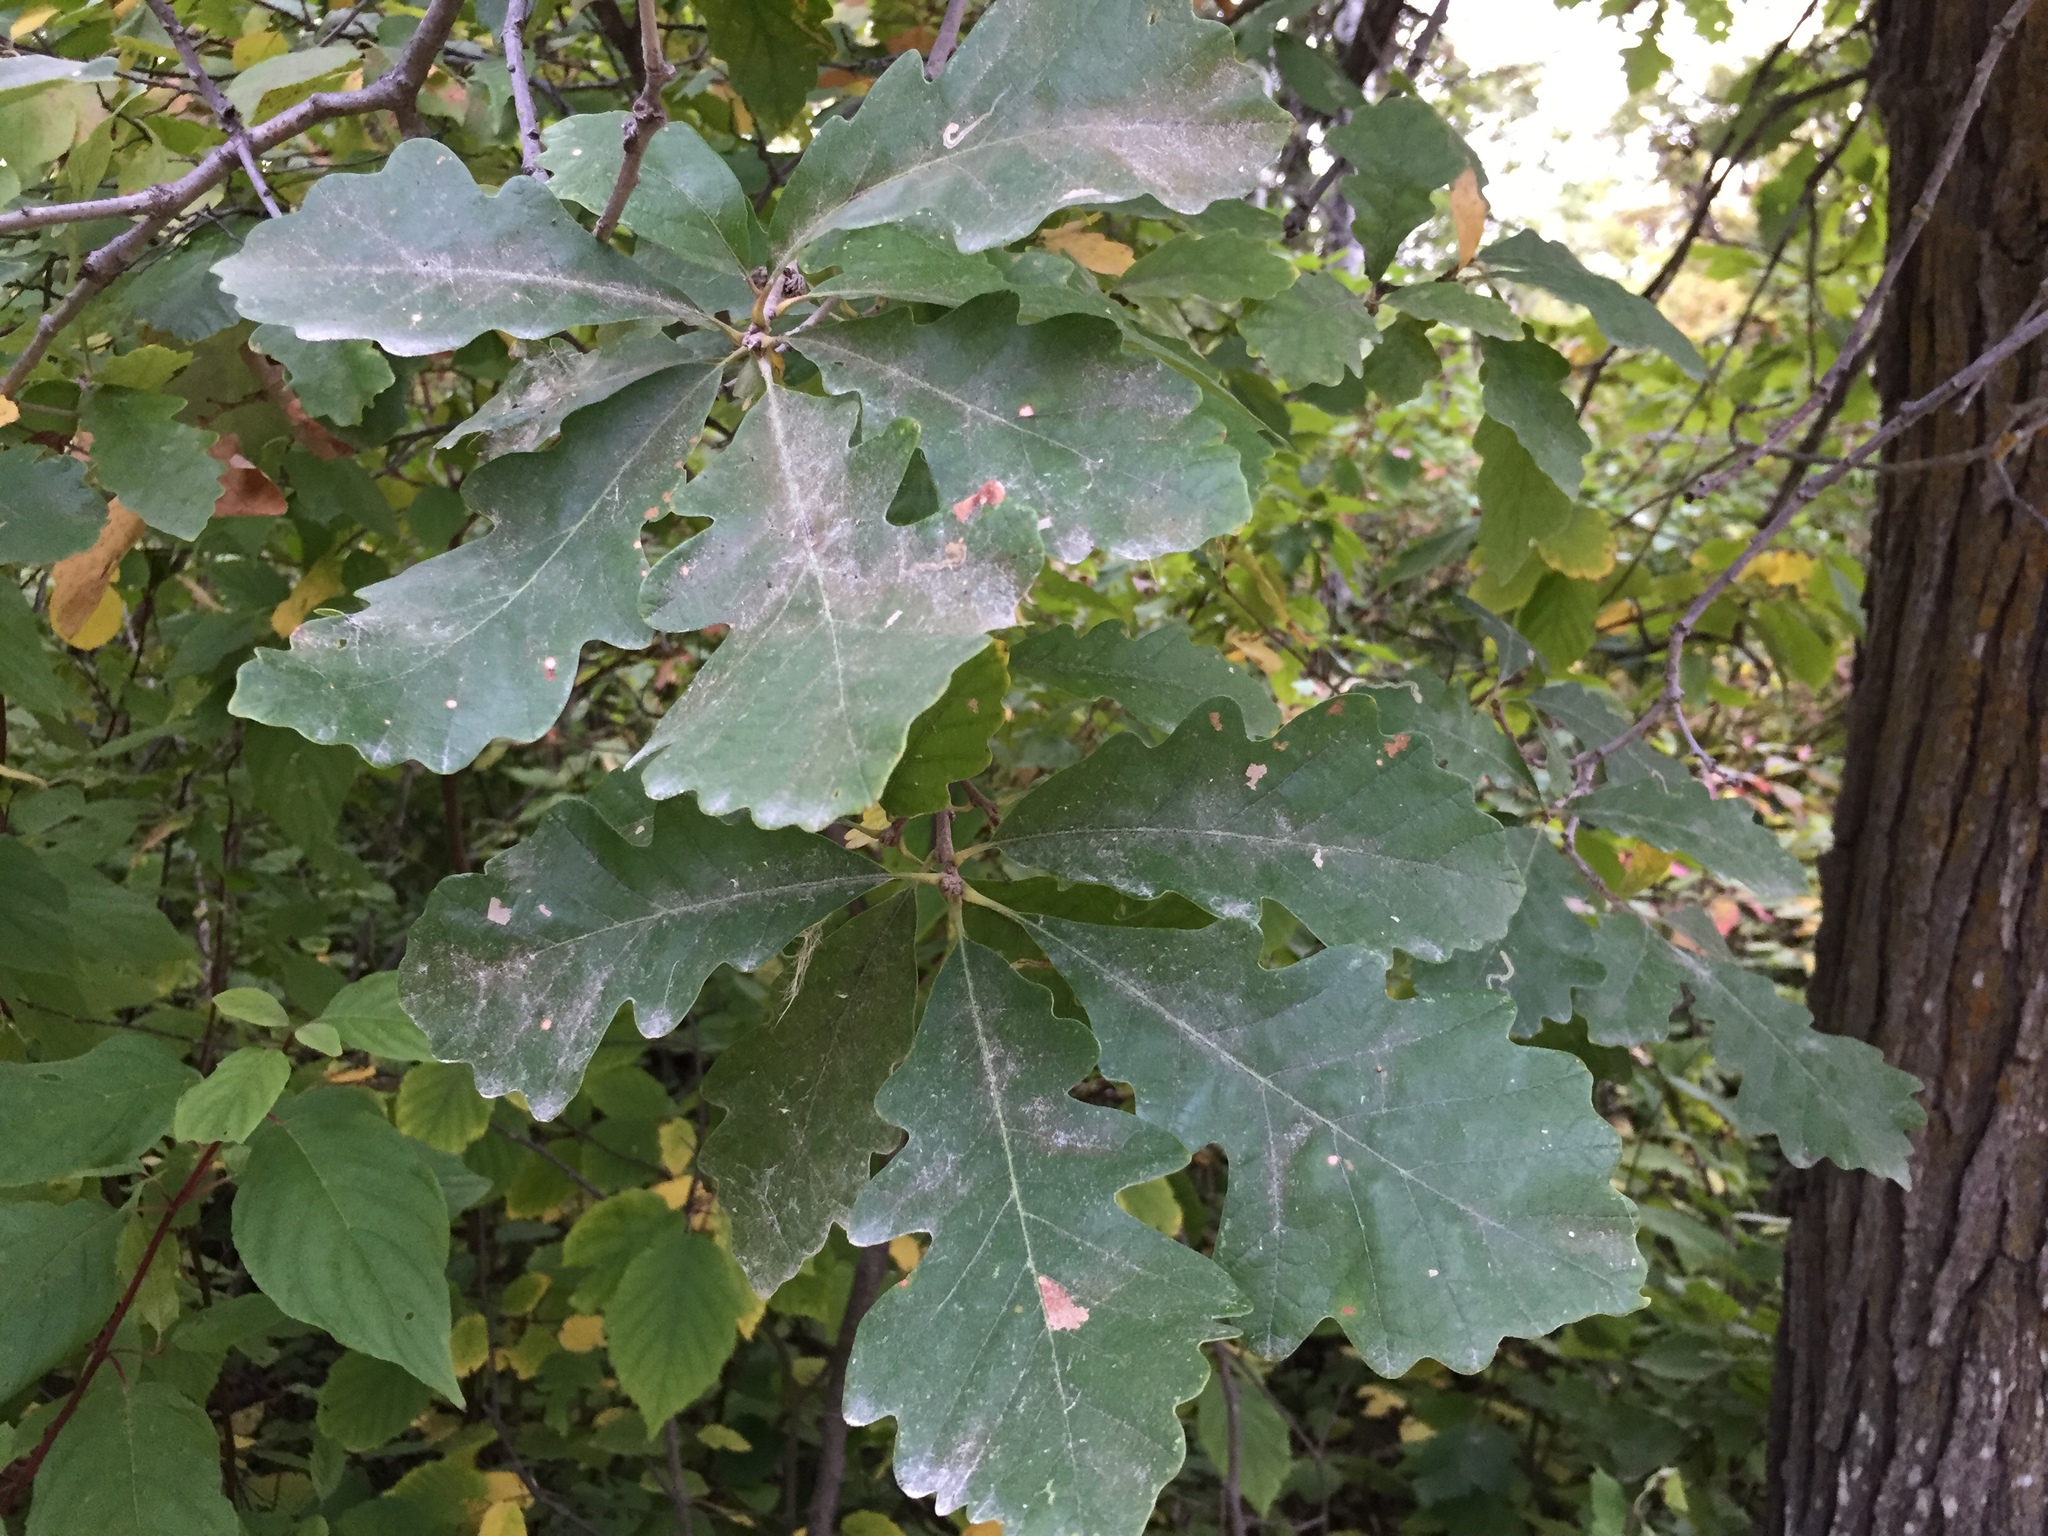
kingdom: Plantae
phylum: Tracheophyta
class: Magnoliopsida
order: Fagales
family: Fagaceae
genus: Quercus
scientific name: Quercus macrocarpa
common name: Bur oak
